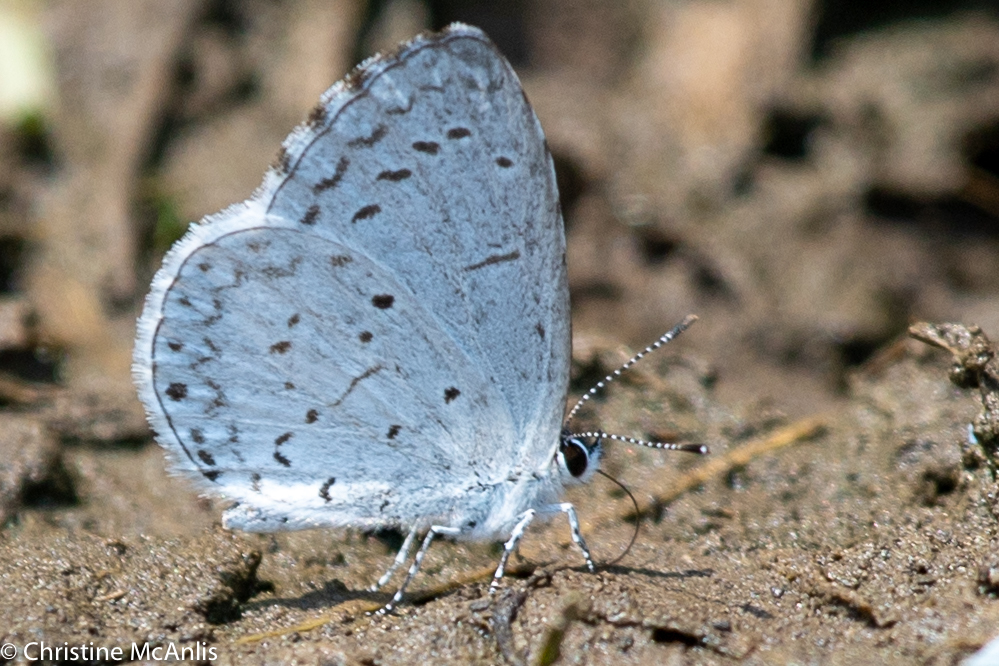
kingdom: Animalia
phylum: Arthropoda
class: Insecta
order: Lepidoptera
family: Lycaenidae
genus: Cyaniris
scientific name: Cyaniris neglecta
